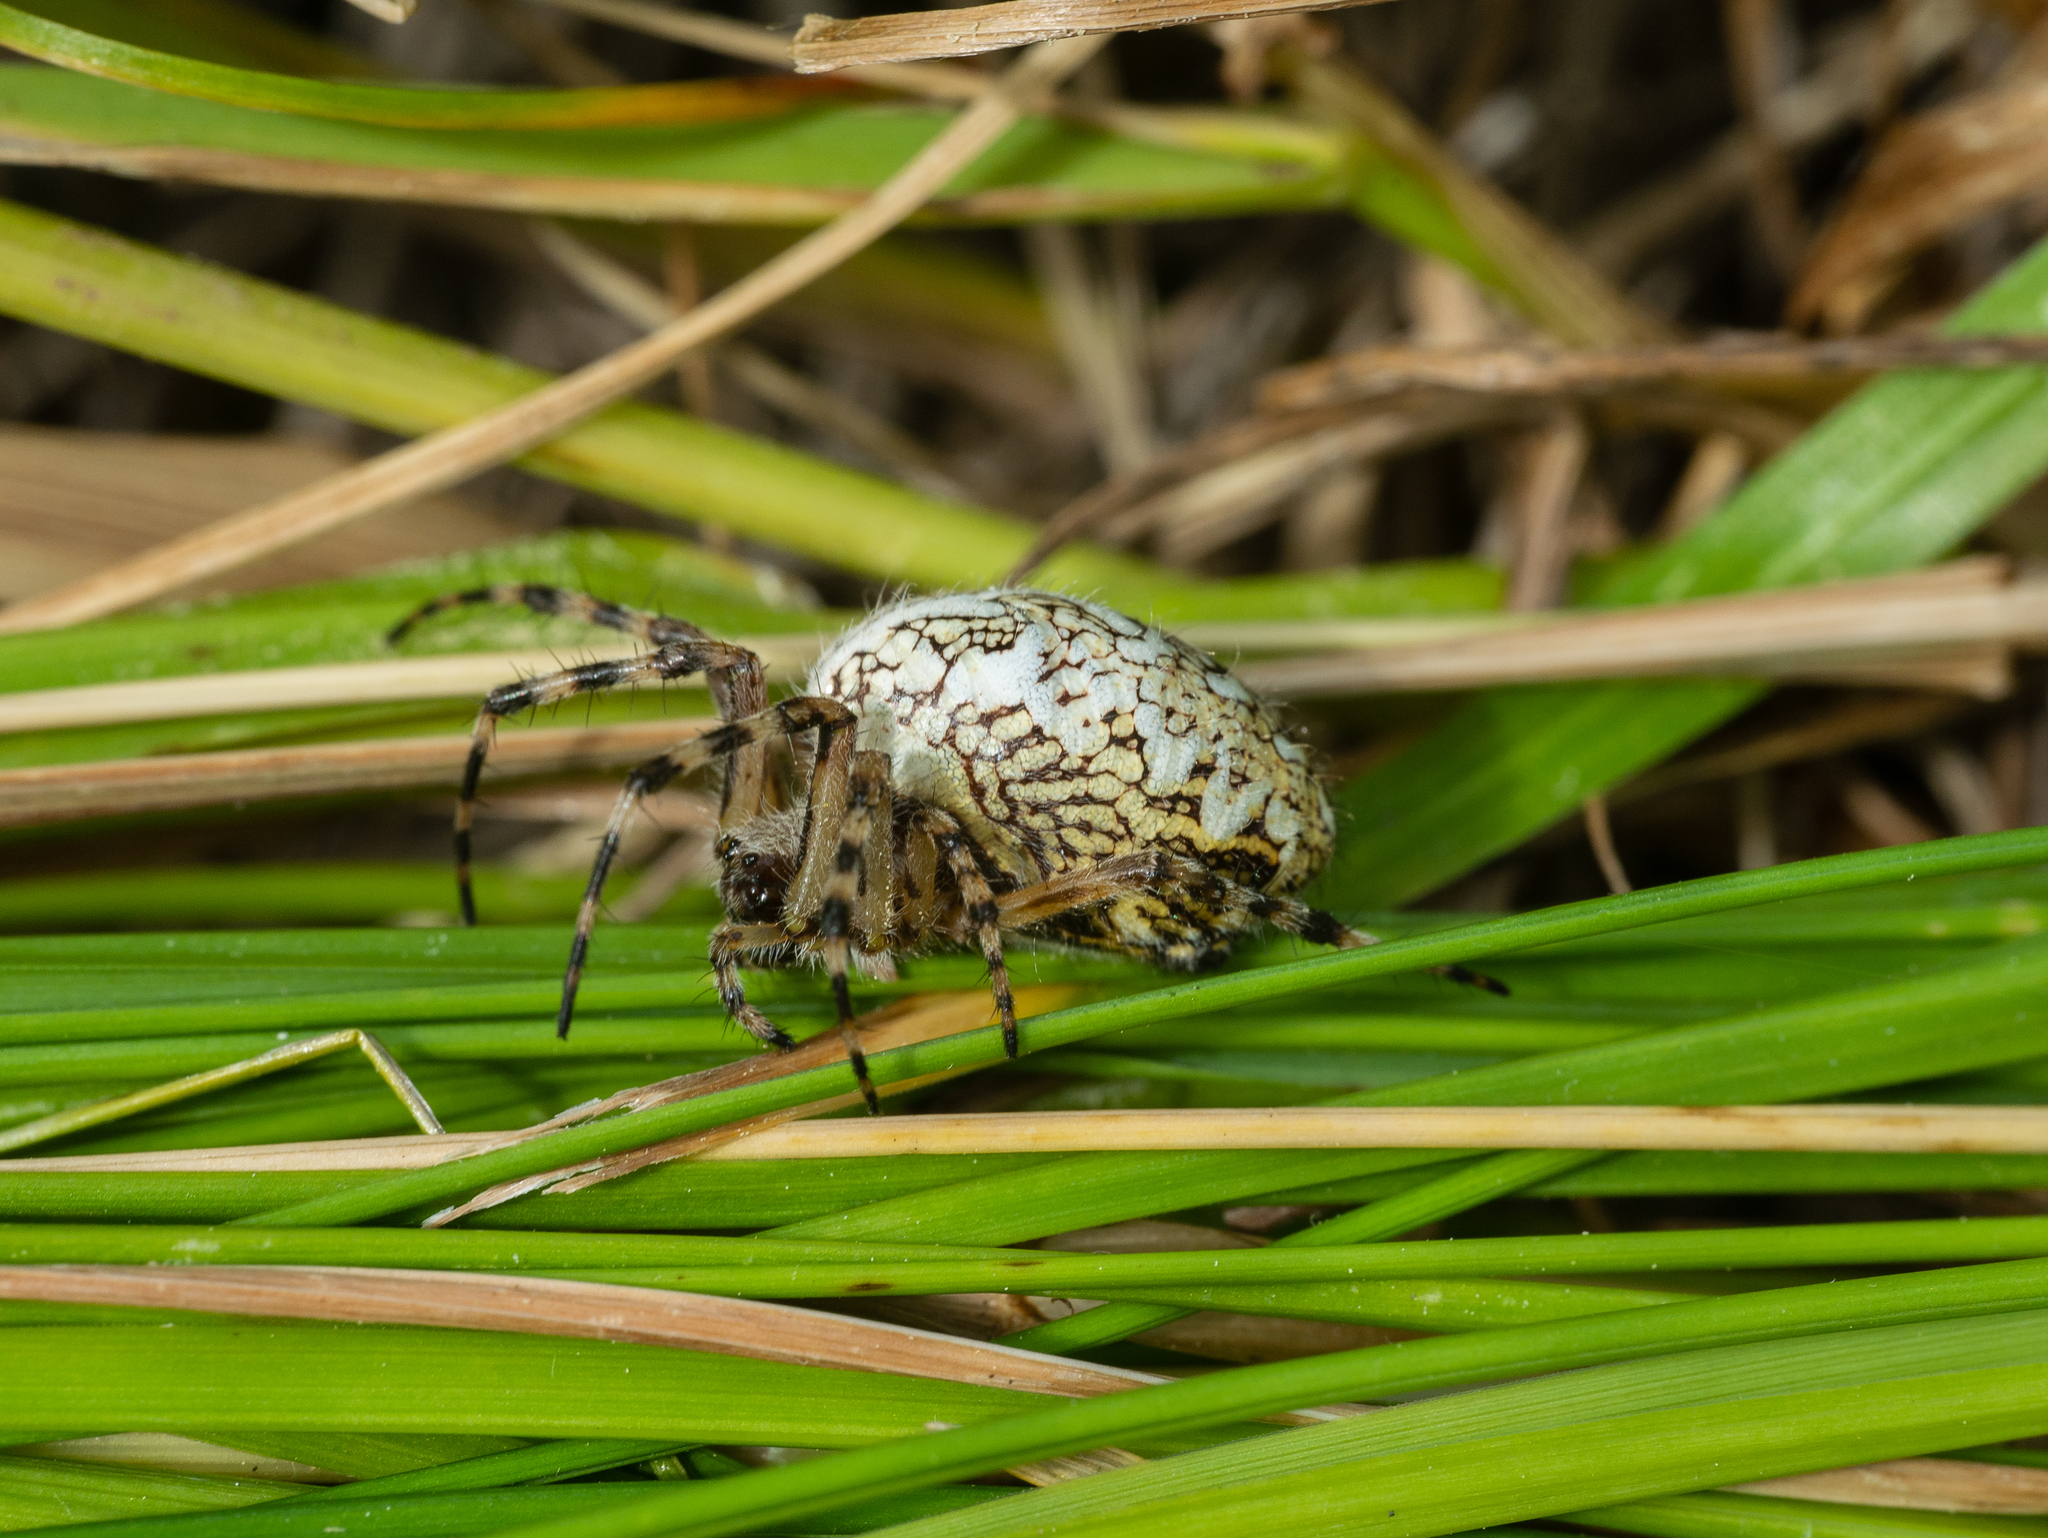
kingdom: Animalia
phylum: Arthropoda
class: Arachnida
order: Araneae
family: Araneidae
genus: Aculepeira
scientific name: Aculepeira ceropegia
